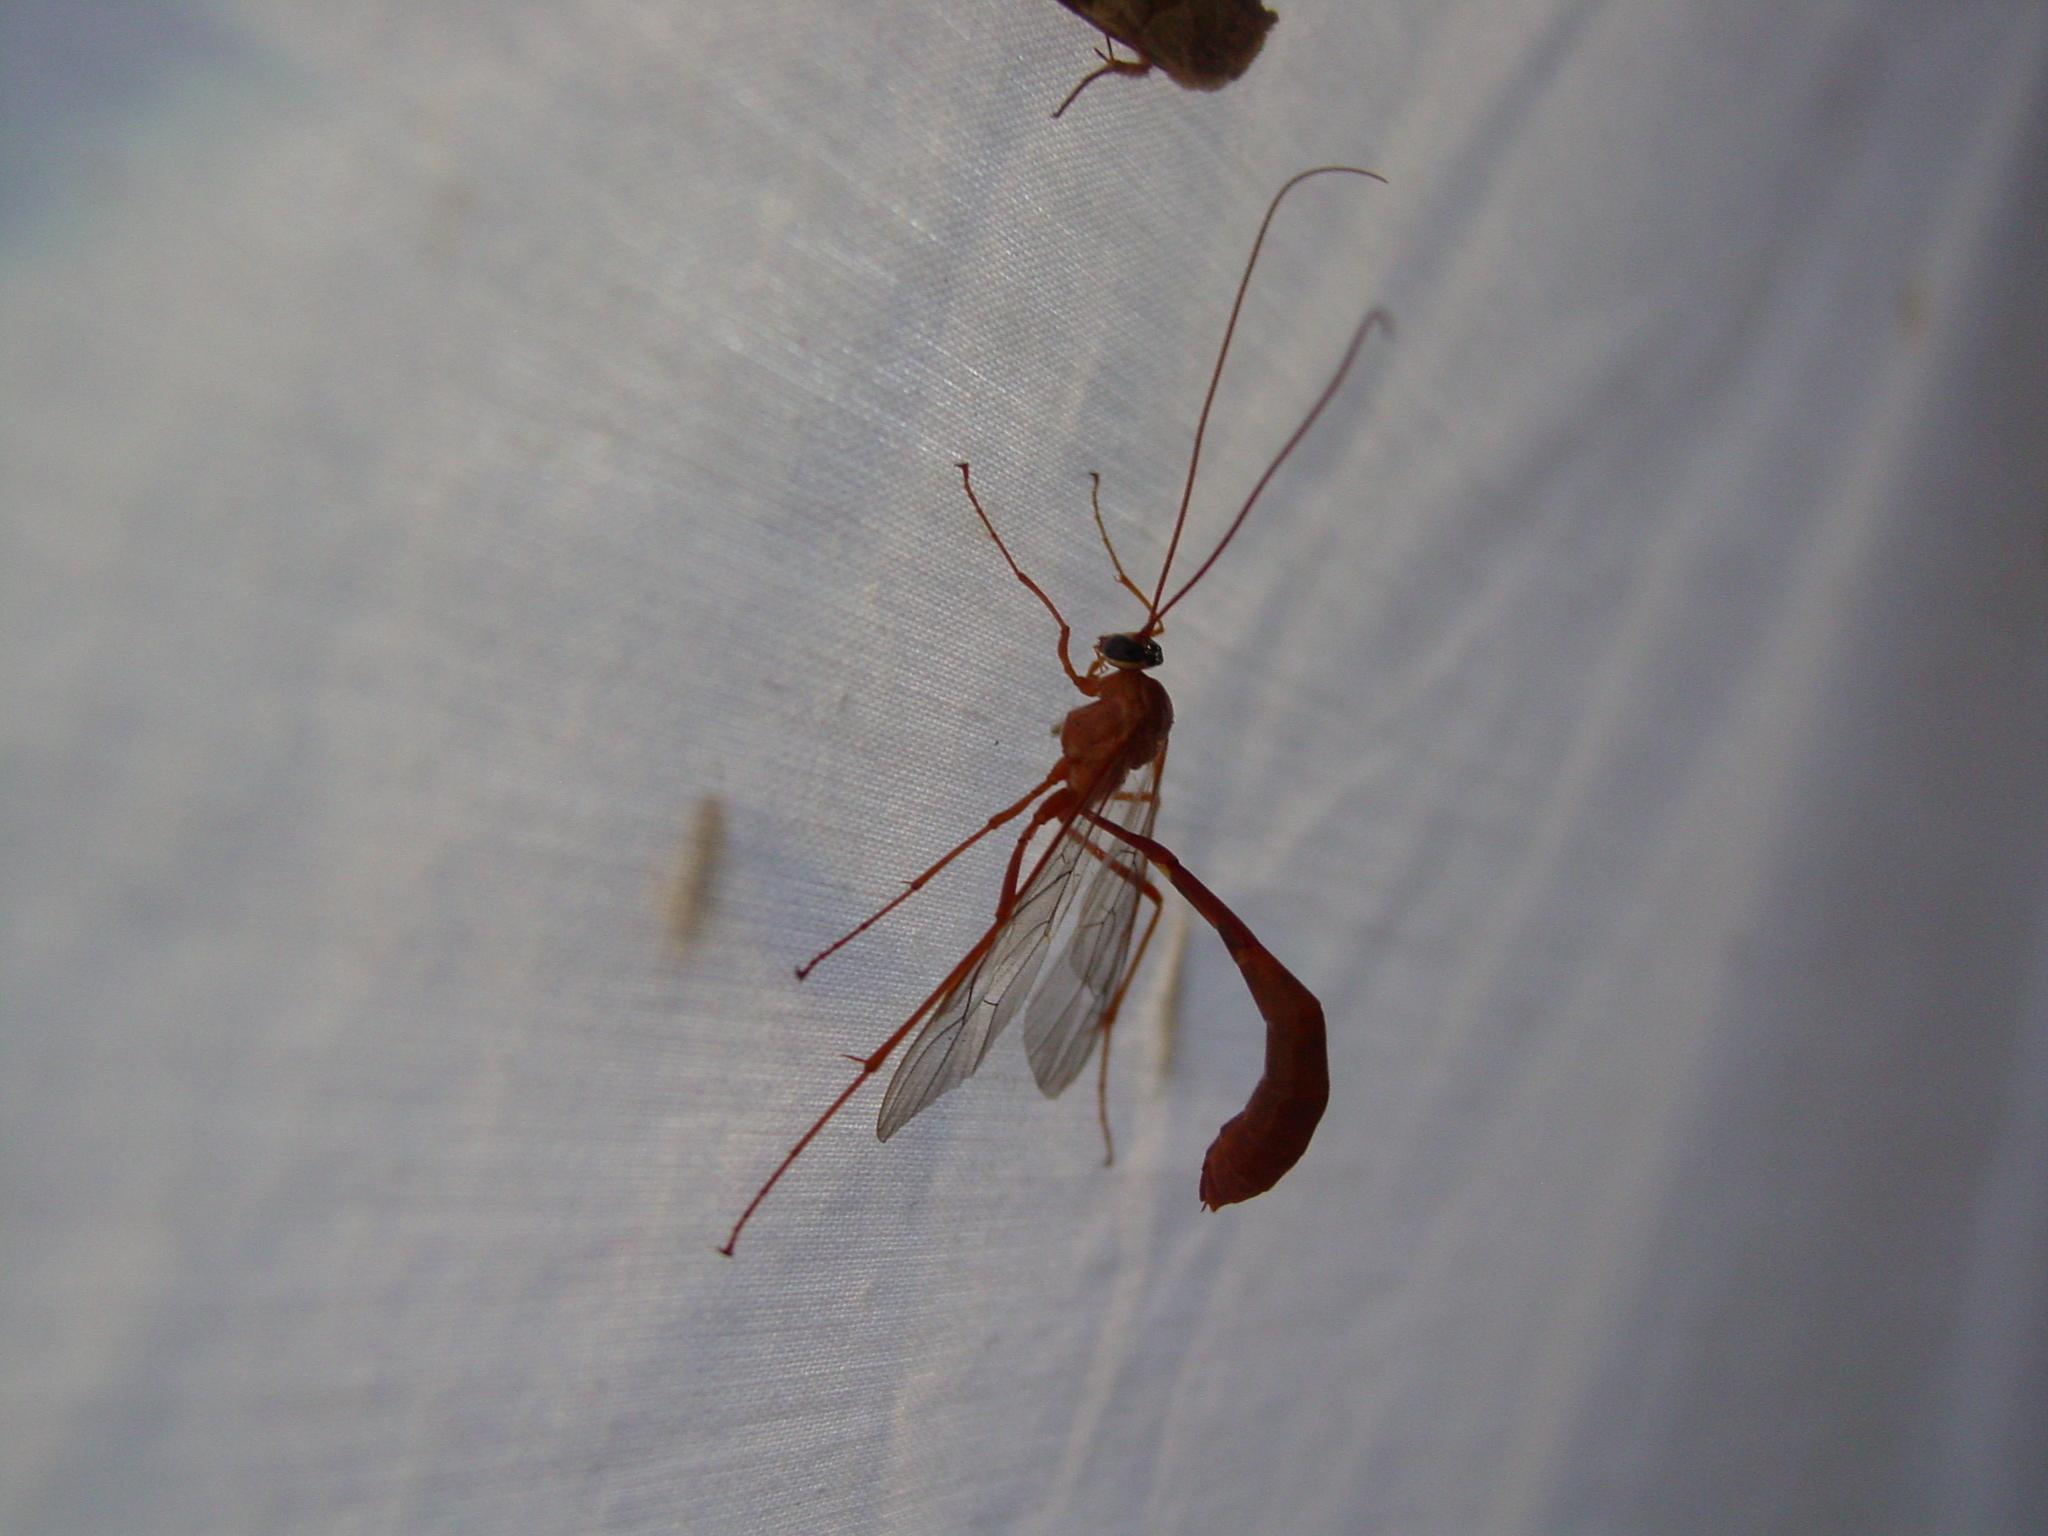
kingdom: Animalia
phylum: Arthropoda
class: Insecta
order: Hymenoptera
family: Ichneumonidae
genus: Netelia
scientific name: Netelia
